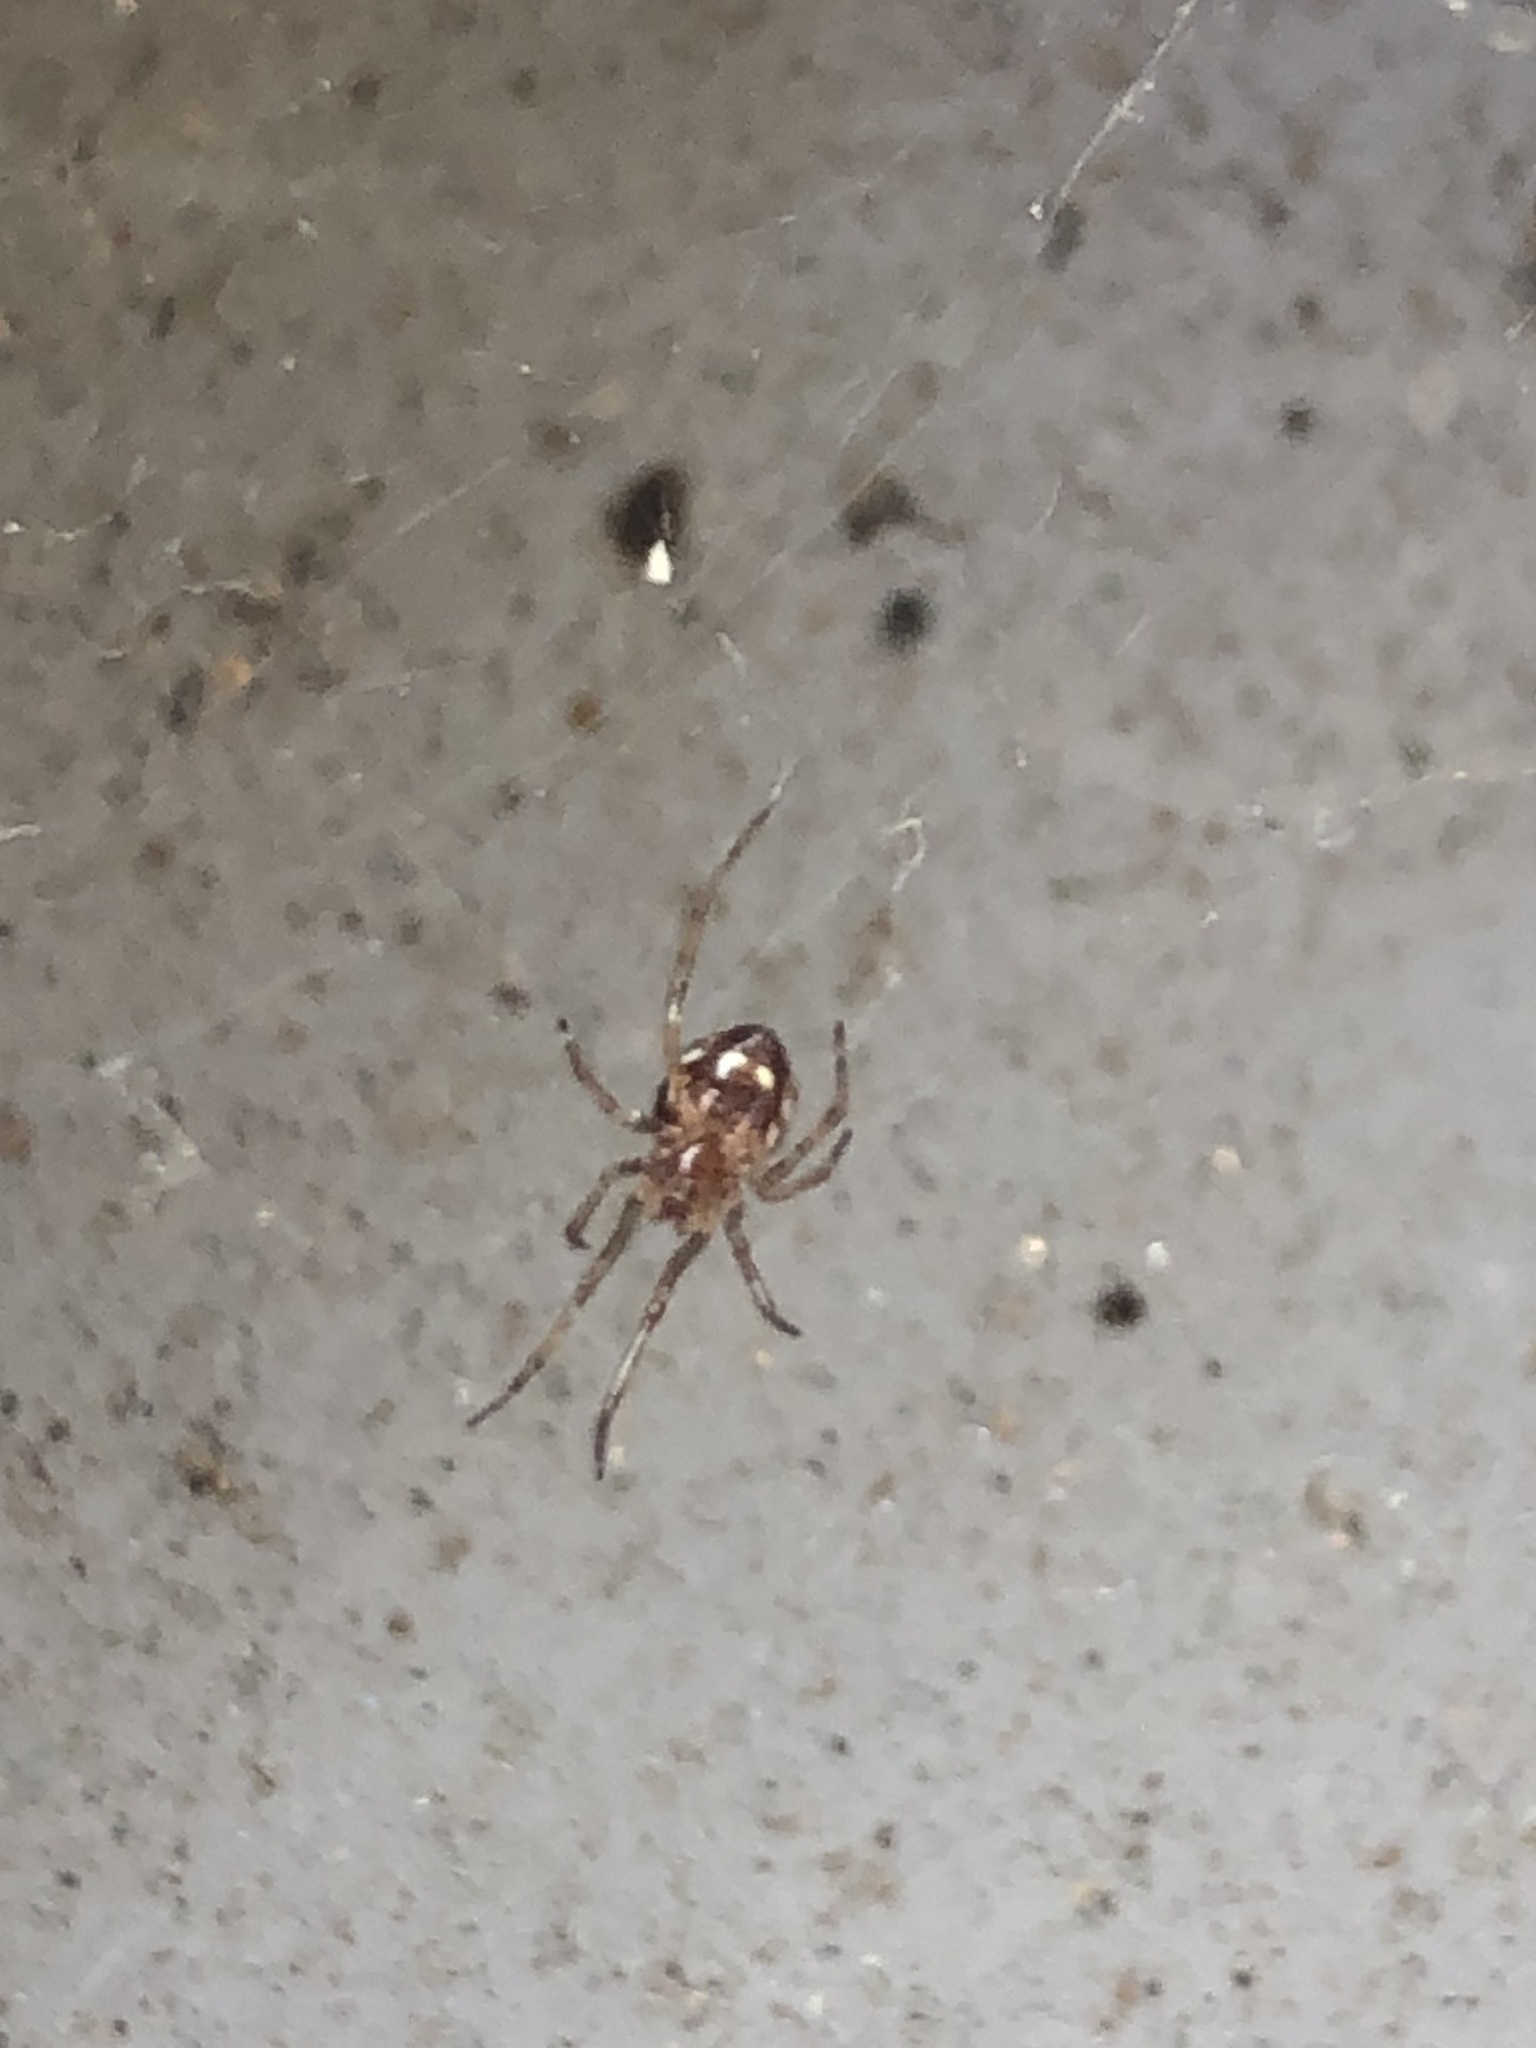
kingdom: Animalia
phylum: Arthropoda
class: Arachnida
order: Araneae
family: Theridiidae
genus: Steatoda
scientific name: Steatoda triangulosa
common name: Triangulate bud spider
